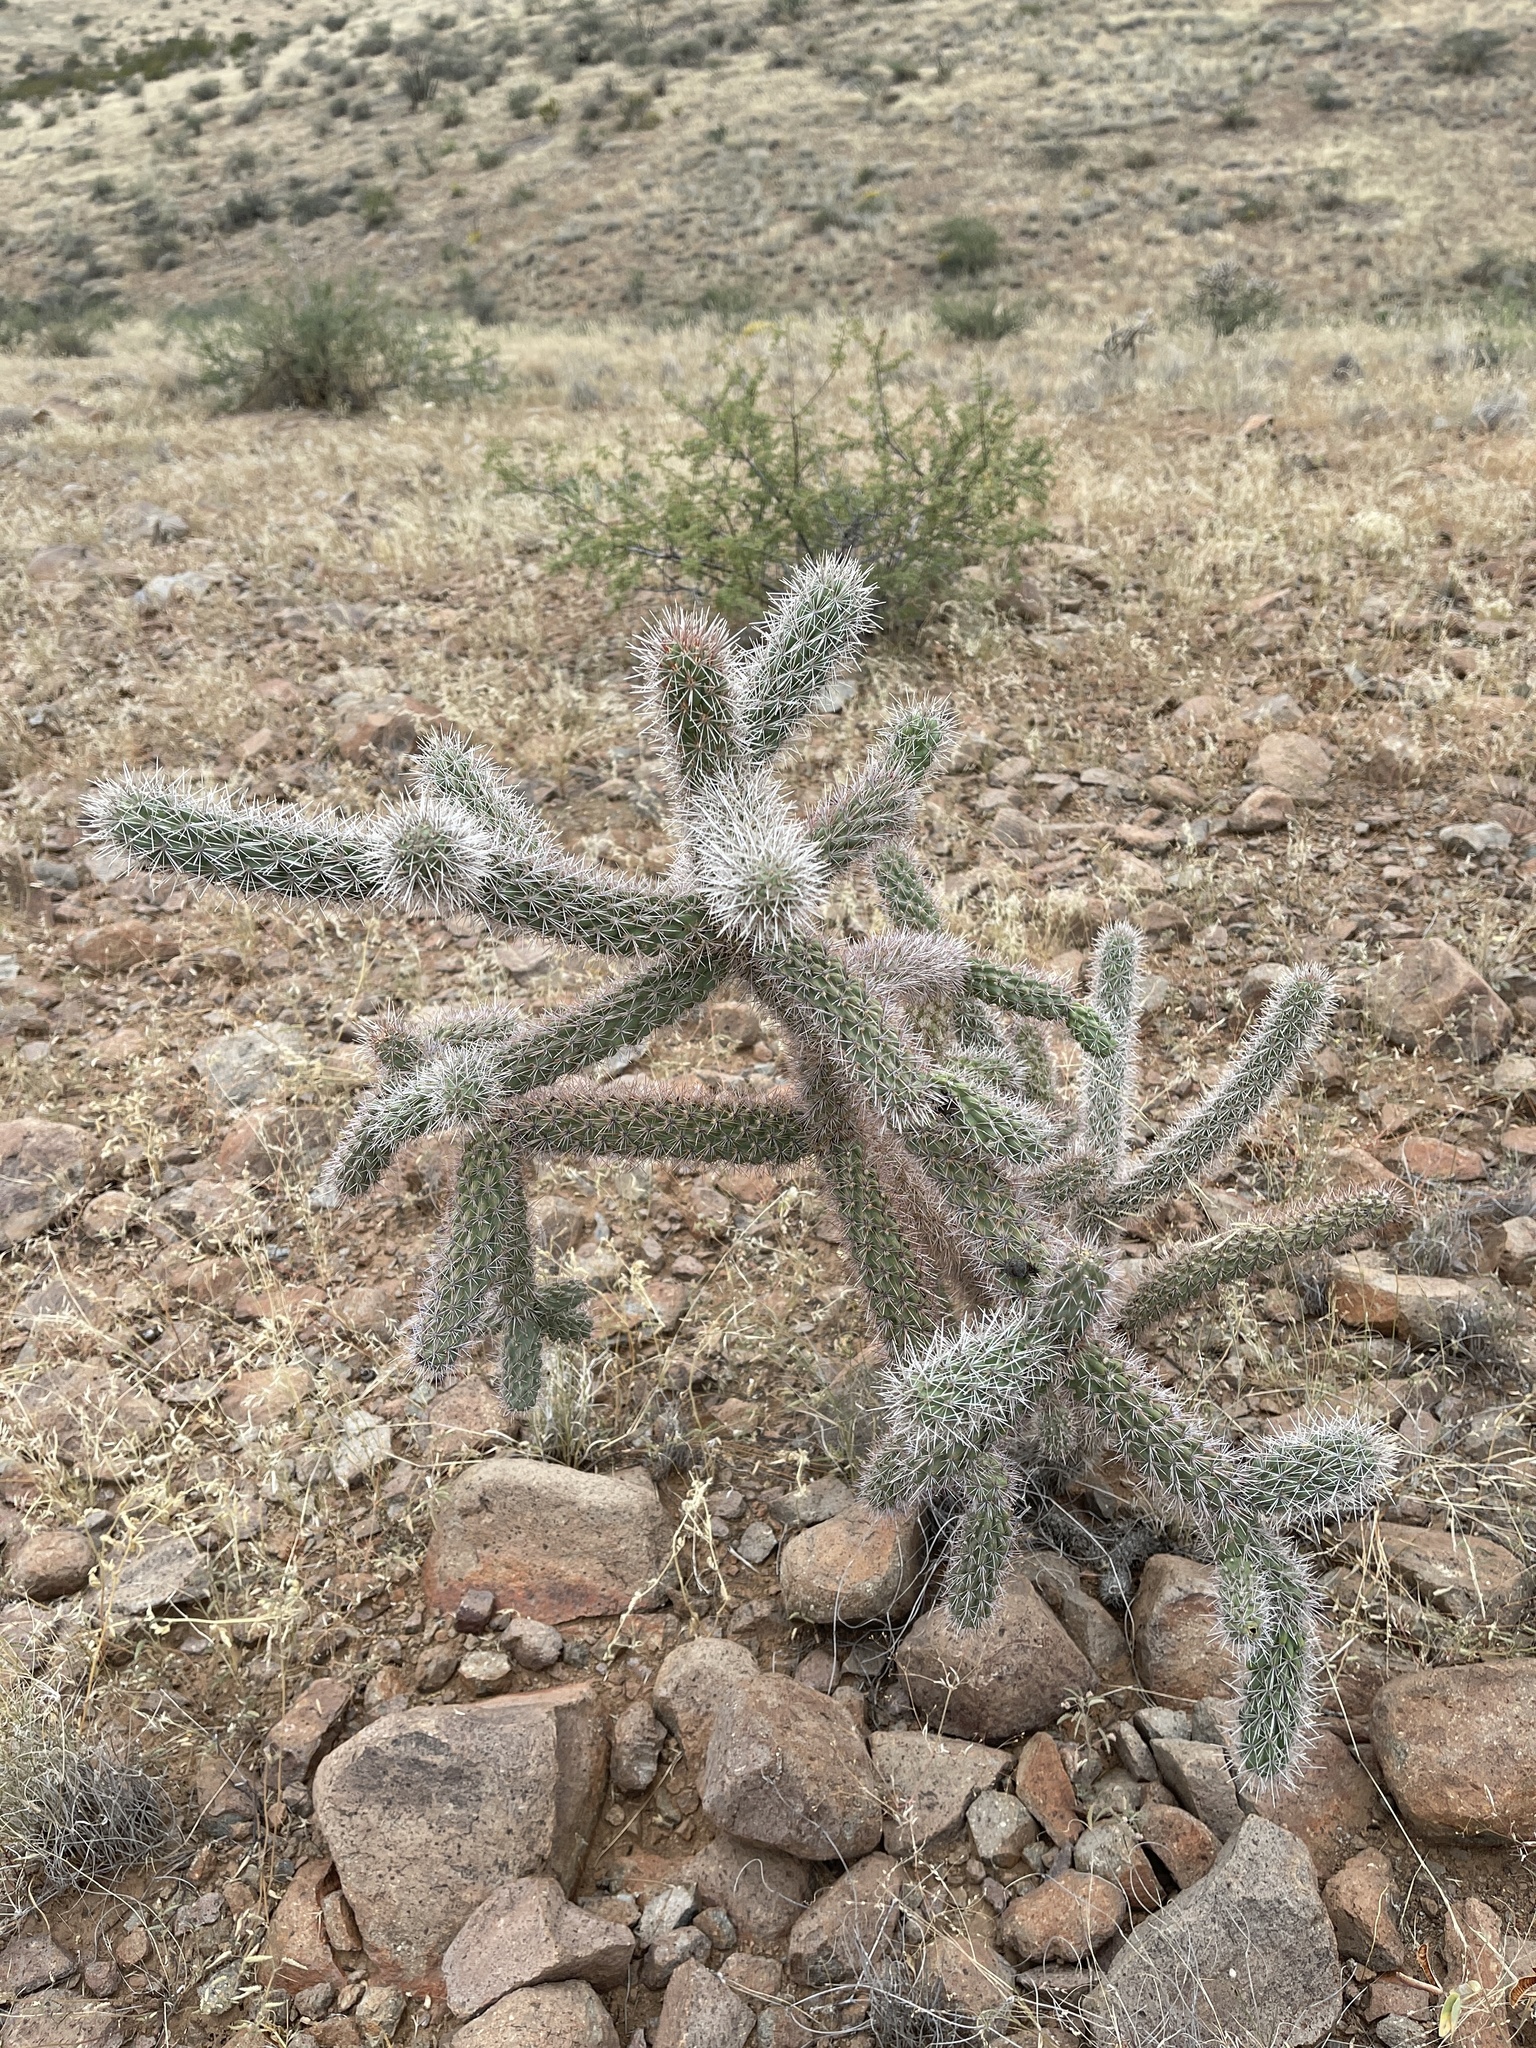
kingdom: Plantae
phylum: Tracheophyta
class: Magnoliopsida
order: Caryophyllales
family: Cactaceae
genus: Cylindropuntia
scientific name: Cylindropuntia imbricata
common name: Candelabrum cactus
